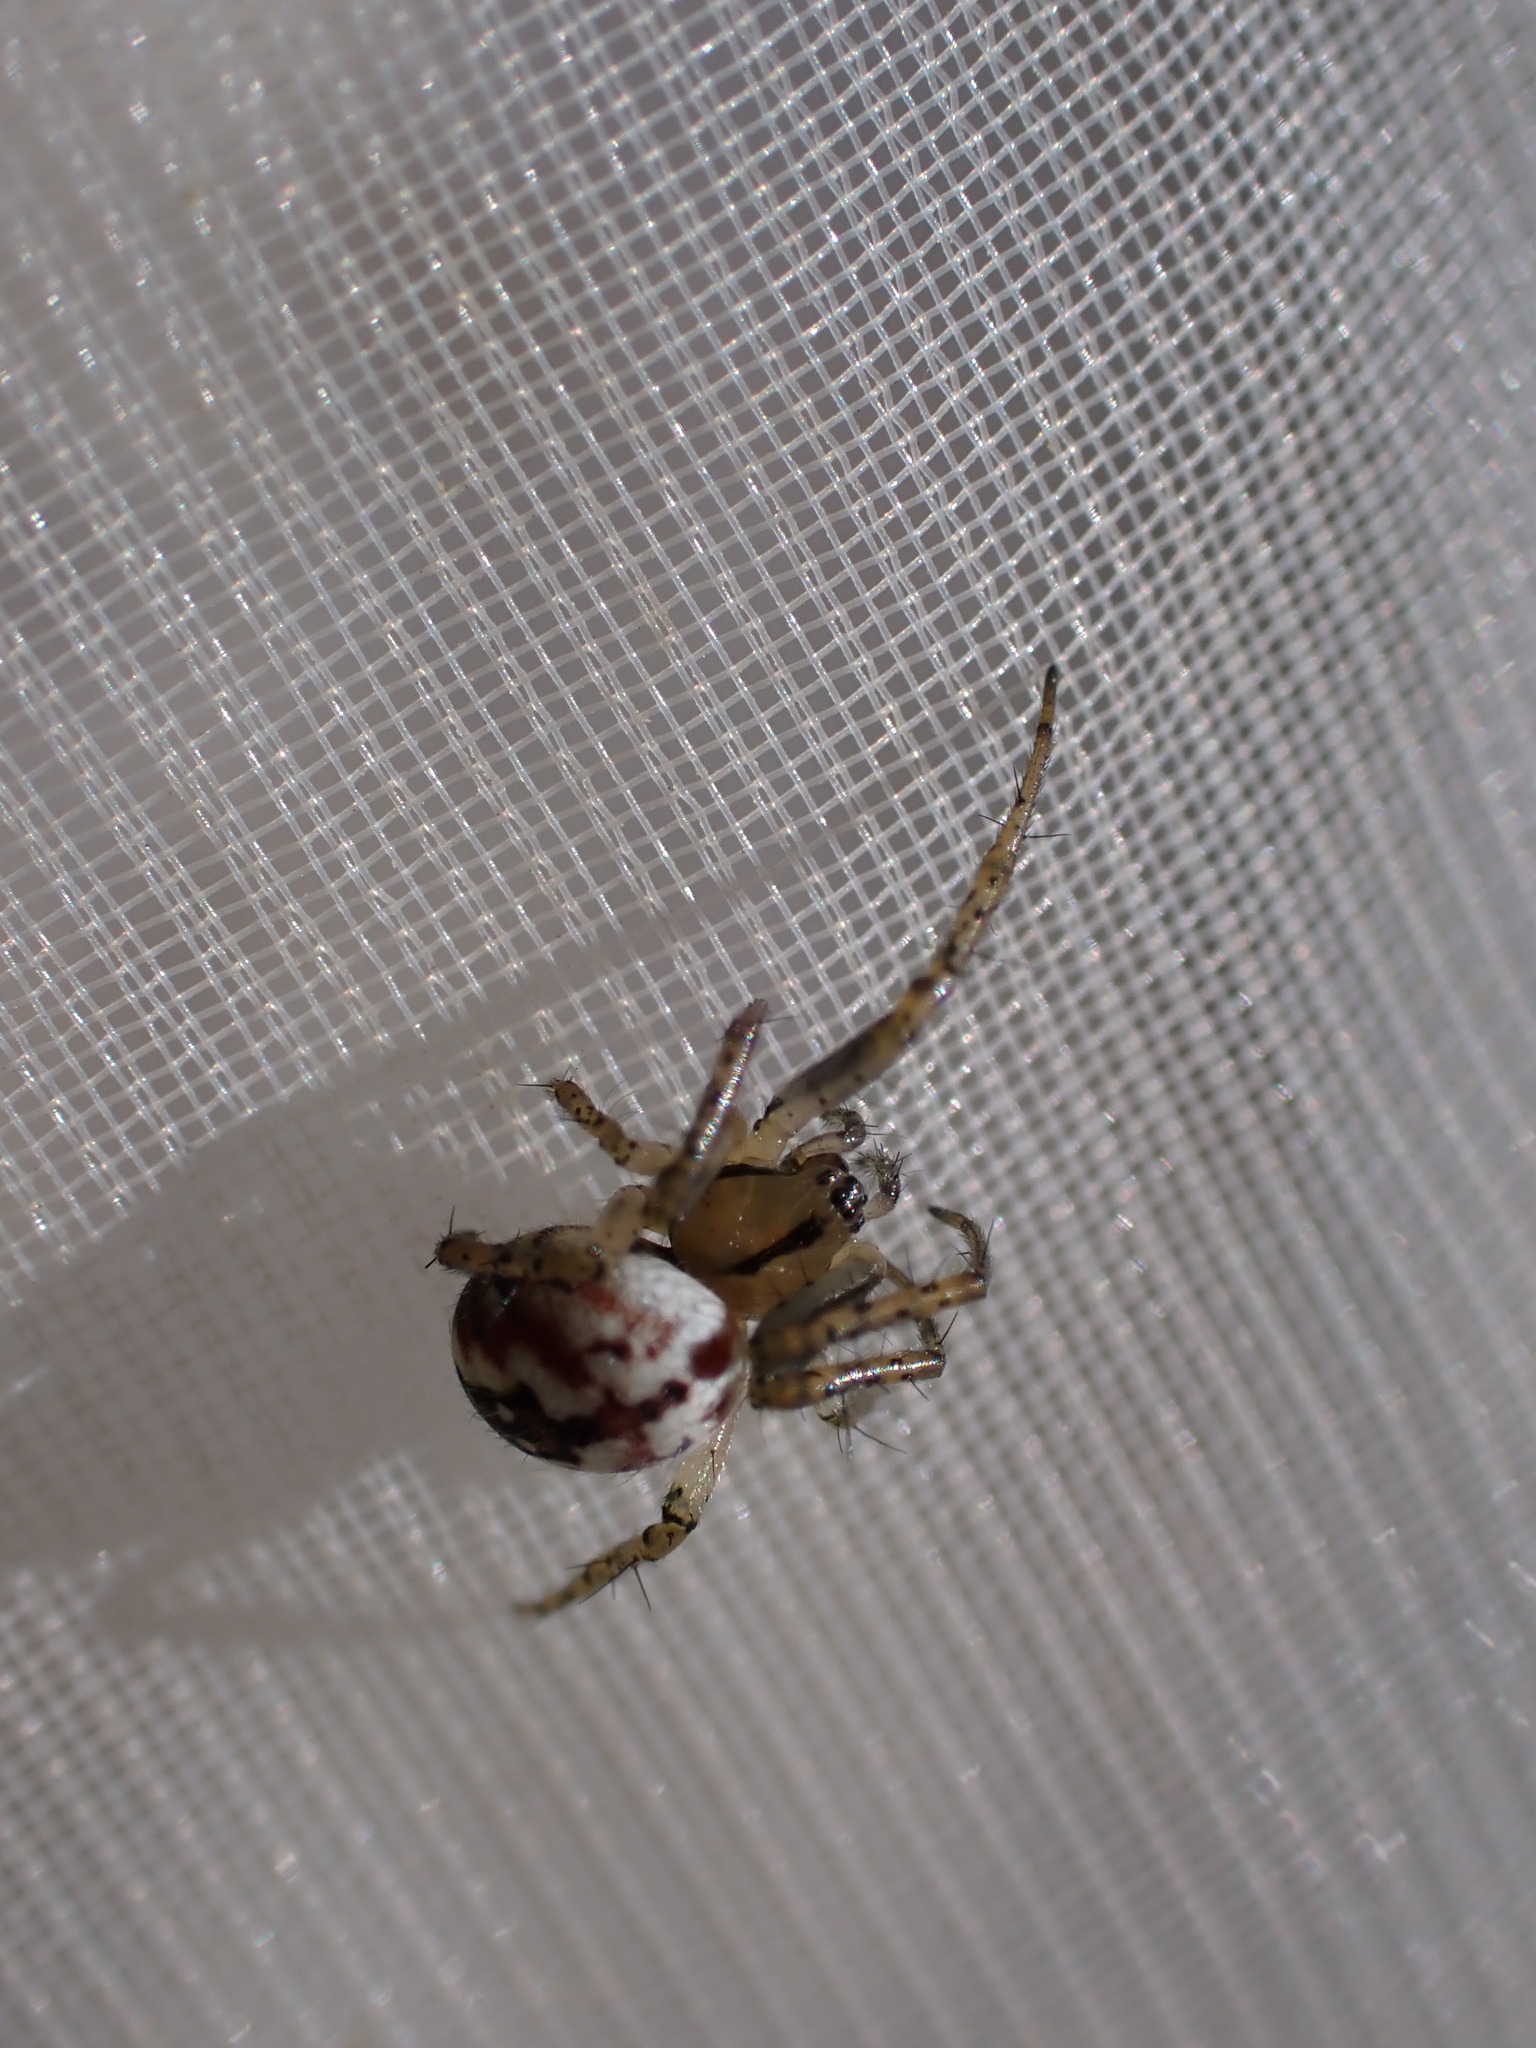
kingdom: Animalia
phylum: Arthropoda
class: Arachnida
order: Araneae
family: Araneidae
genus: Mangora
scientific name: Mangora acalypha
